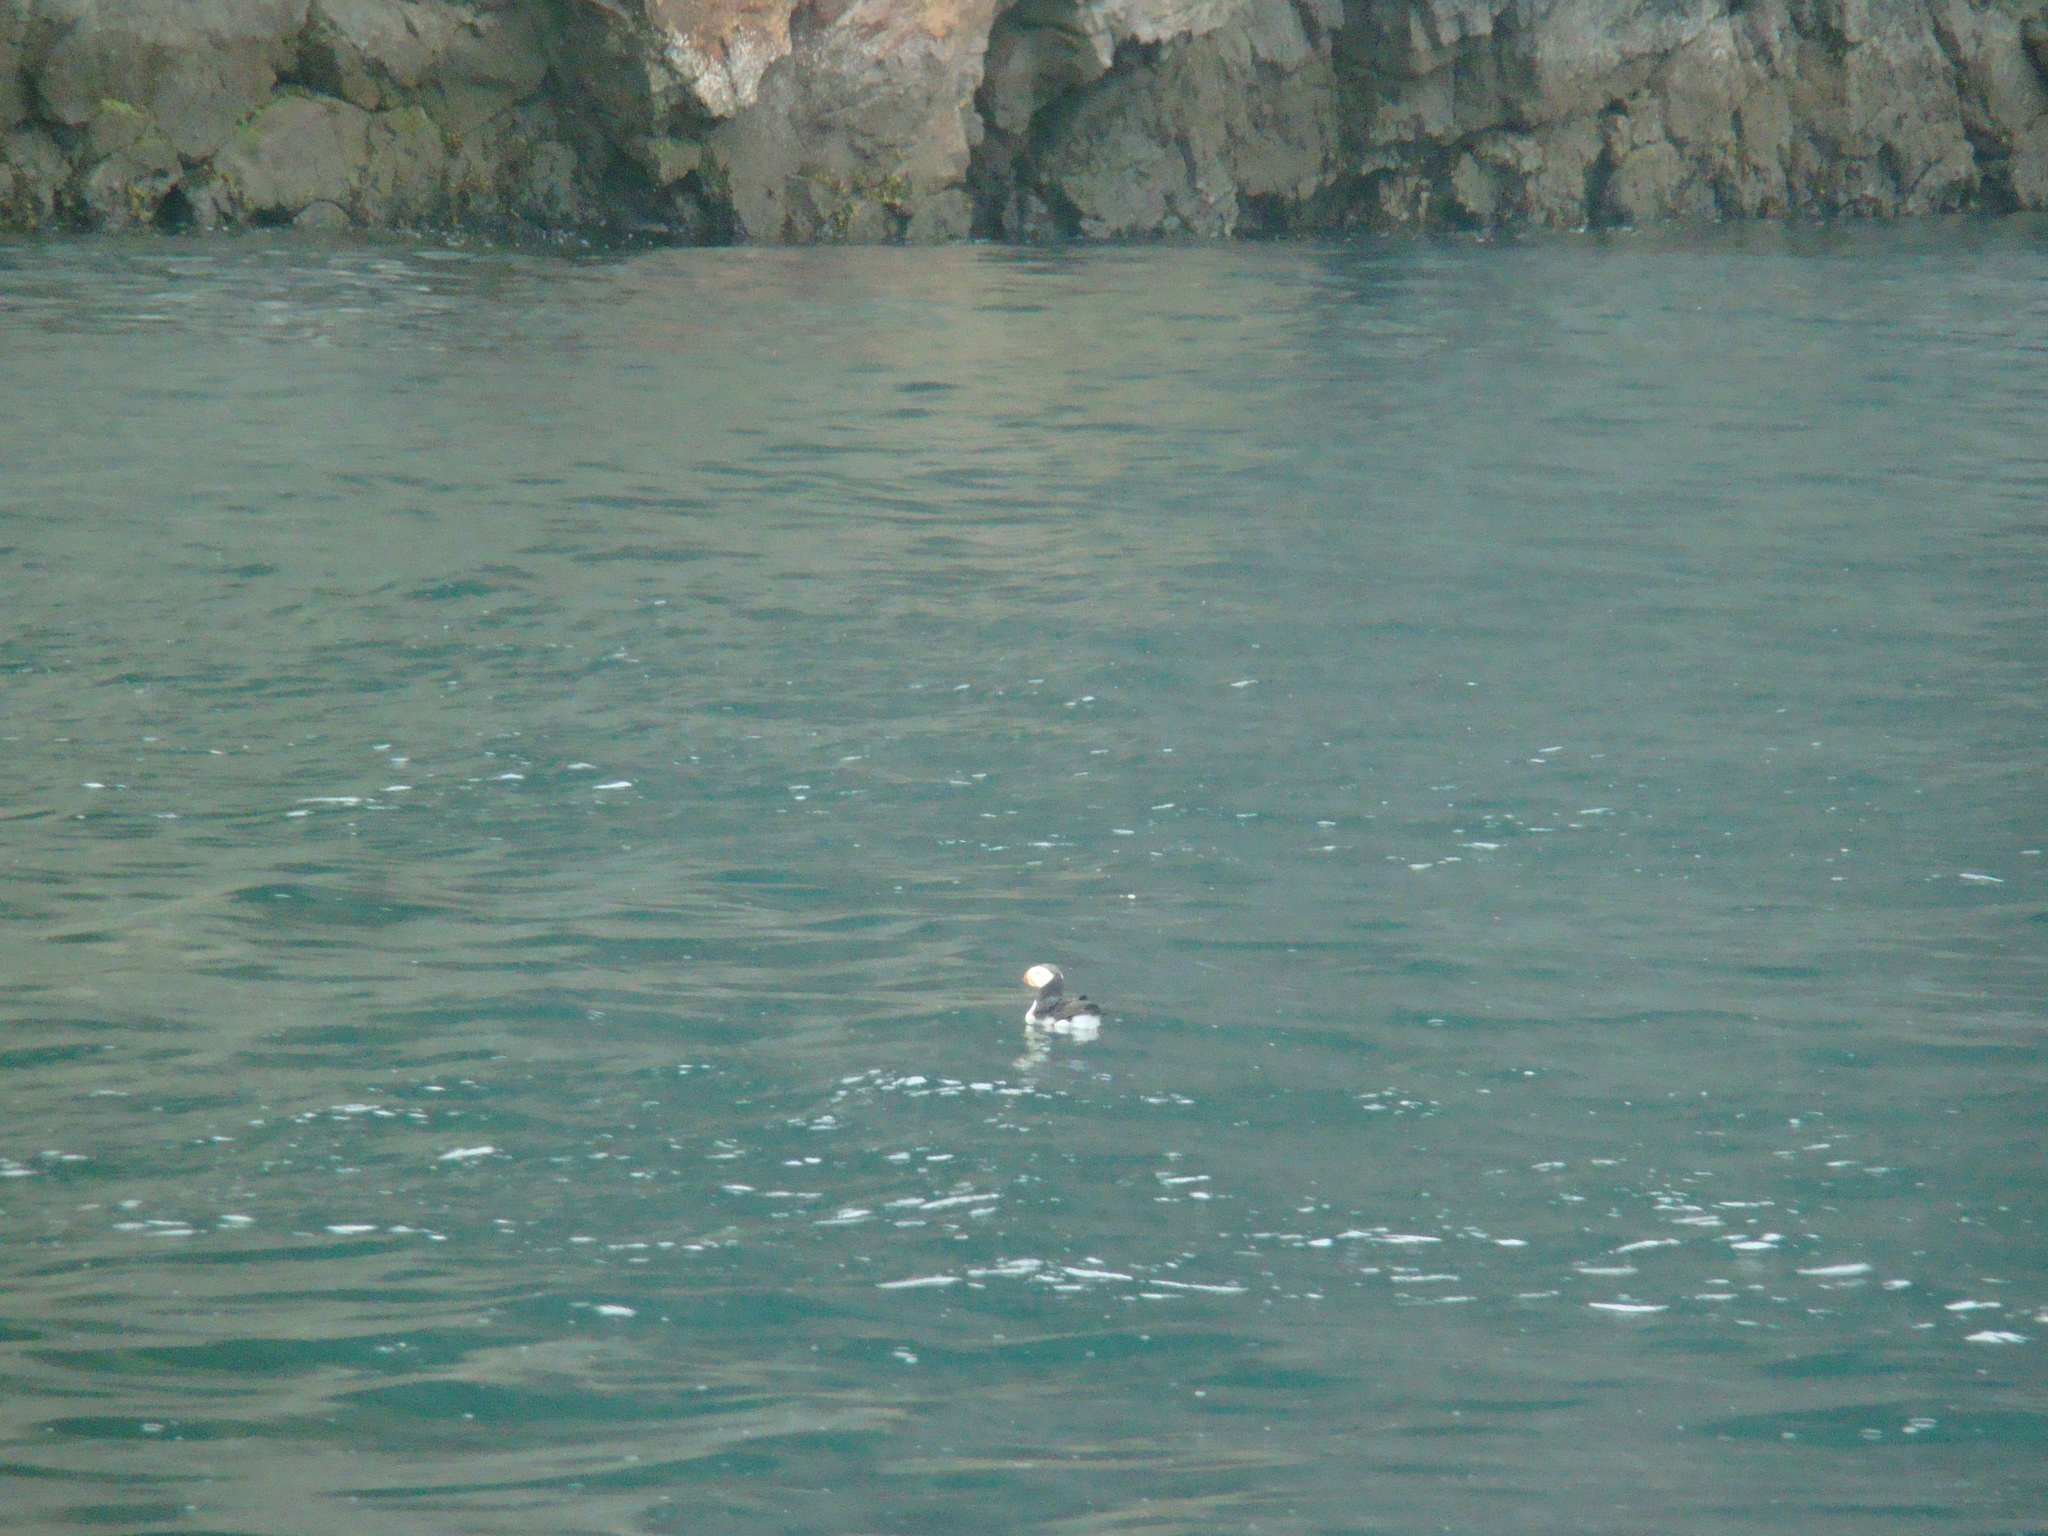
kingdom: Animalia
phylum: Chordata
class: Aves
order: Charadriiformes
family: Alcidae
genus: Fratercula
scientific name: Fratercula corniculata
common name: Horned puffin
